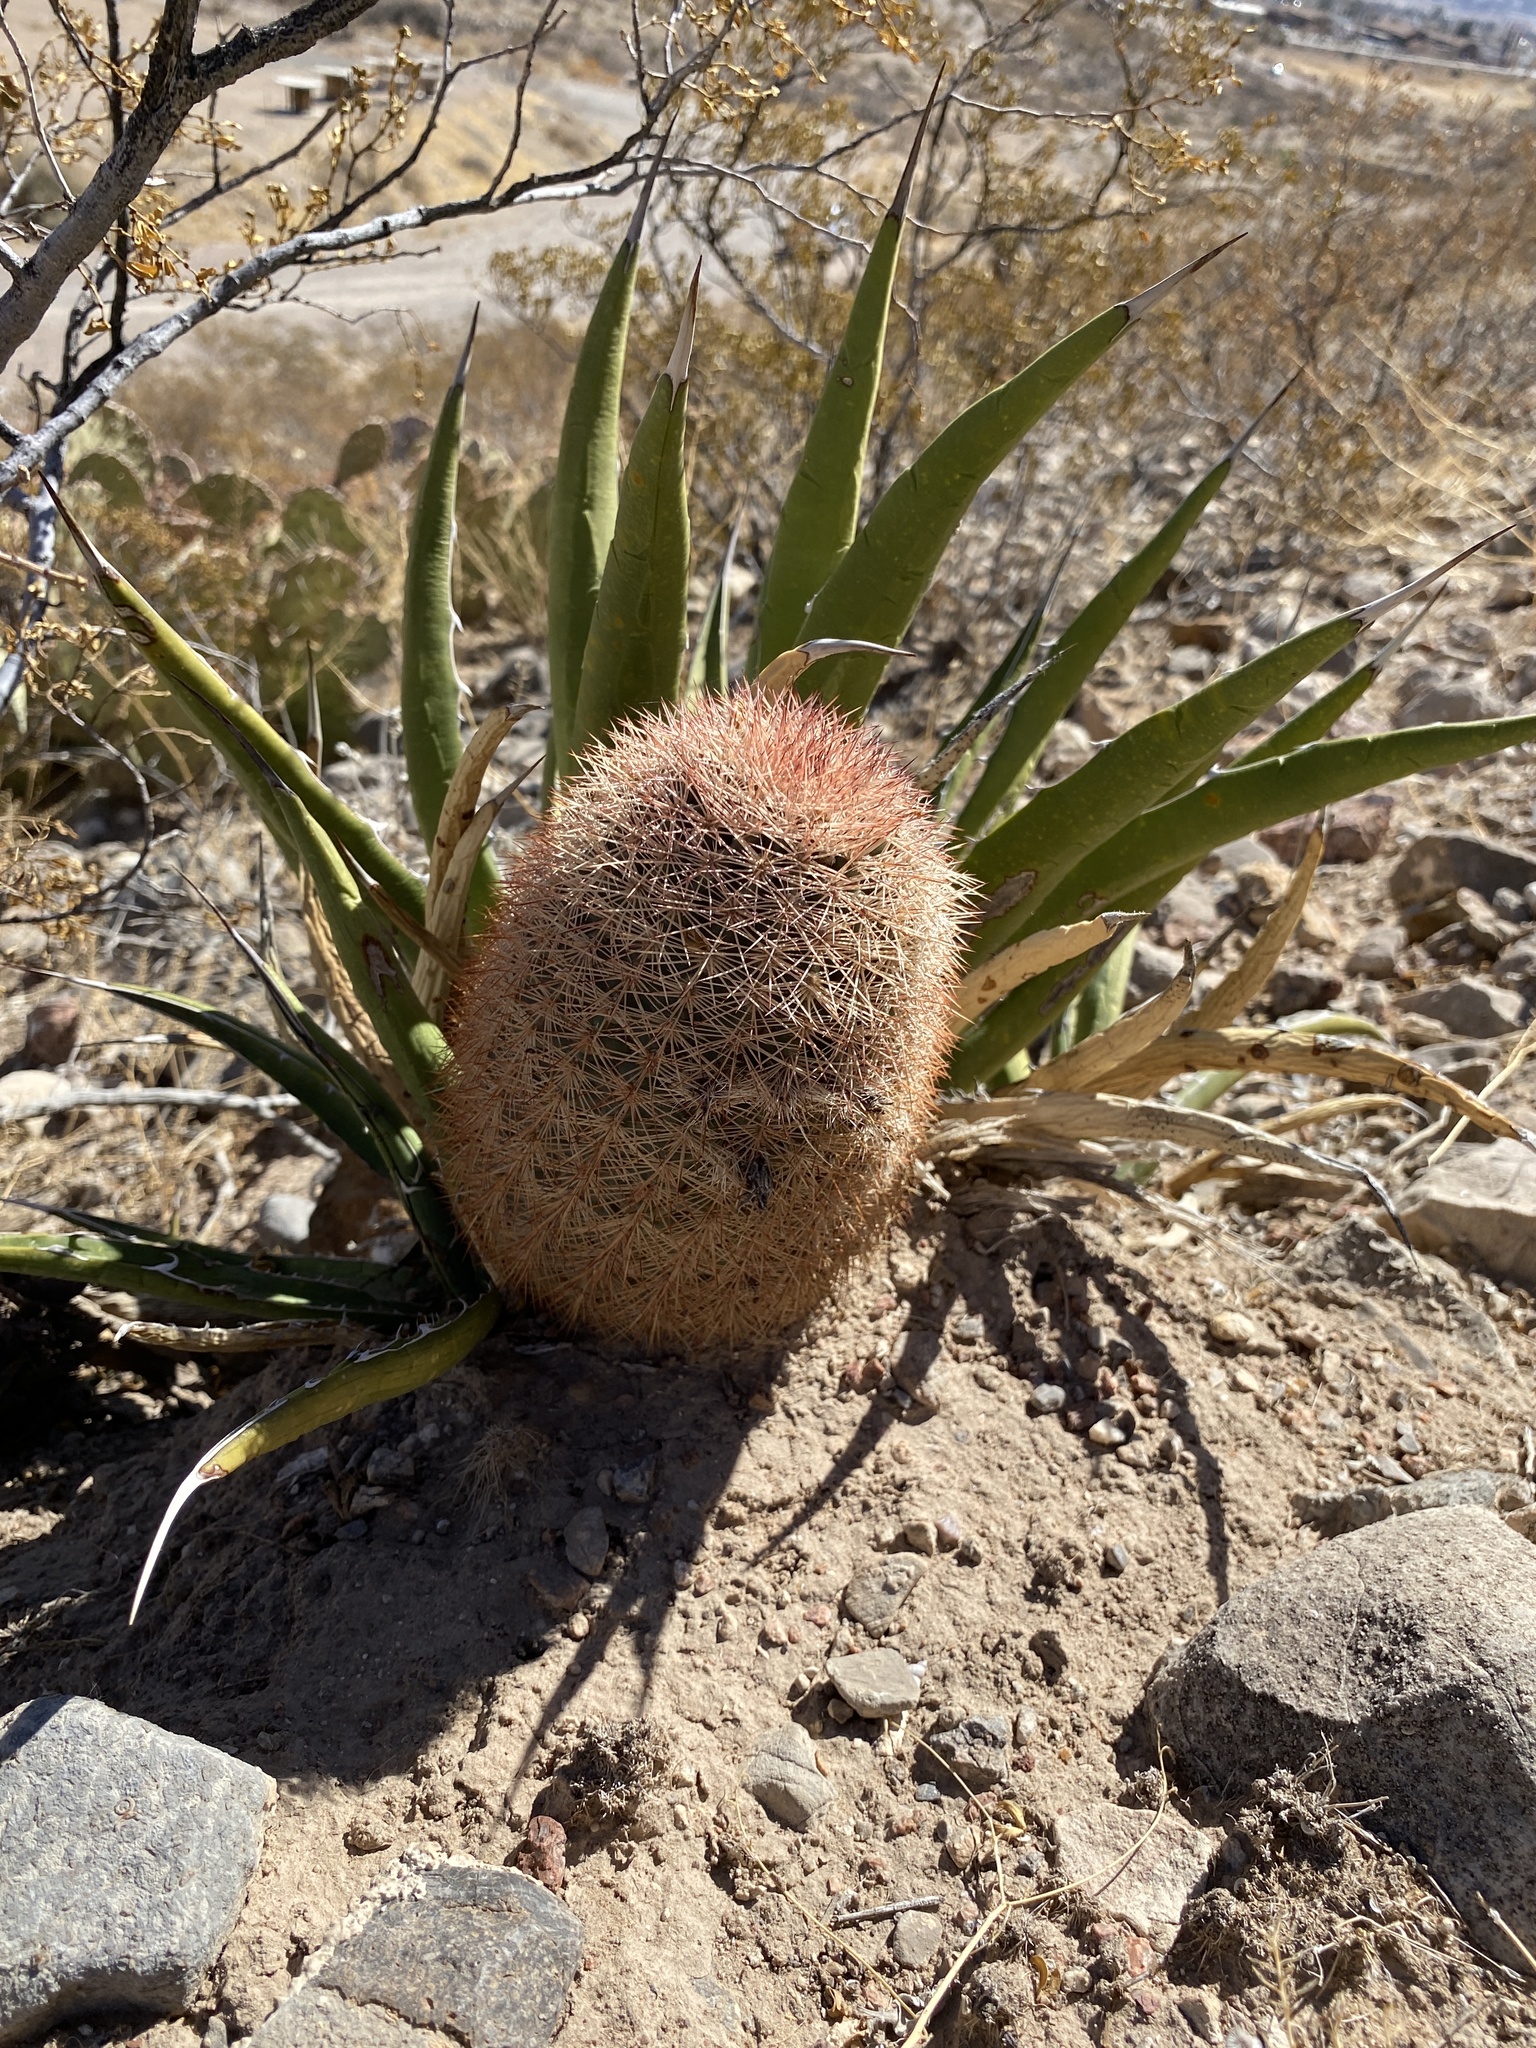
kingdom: Plantae
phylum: Tracheophyta
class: Magnoliopsida
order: Caryophyllales
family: Cactaceae
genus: Echinocereus
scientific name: Echinocereus dasyacanthus
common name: Spiny hedgehog cactus
